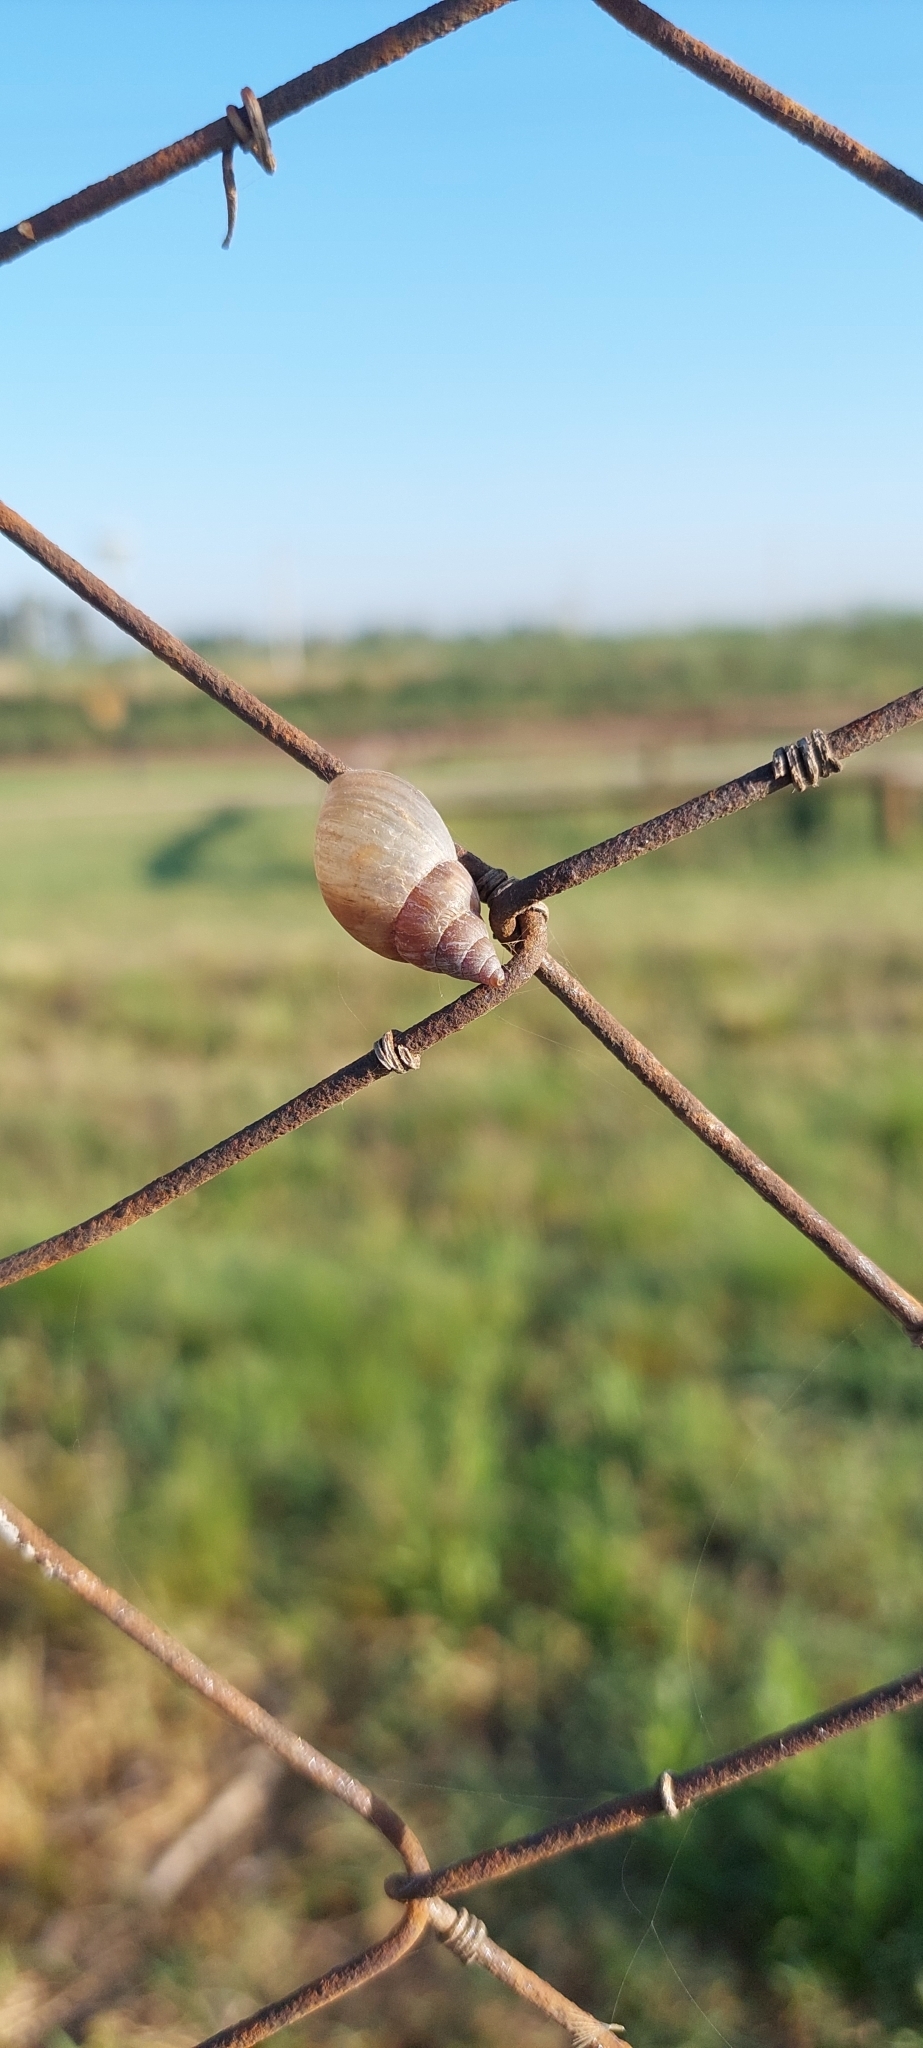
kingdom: Animalia
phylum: Mollusca
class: Gastropoda
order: Stylommatophora
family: Bulimulidae
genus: Bulimulus
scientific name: Bulimulus bonariensis
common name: Snail
